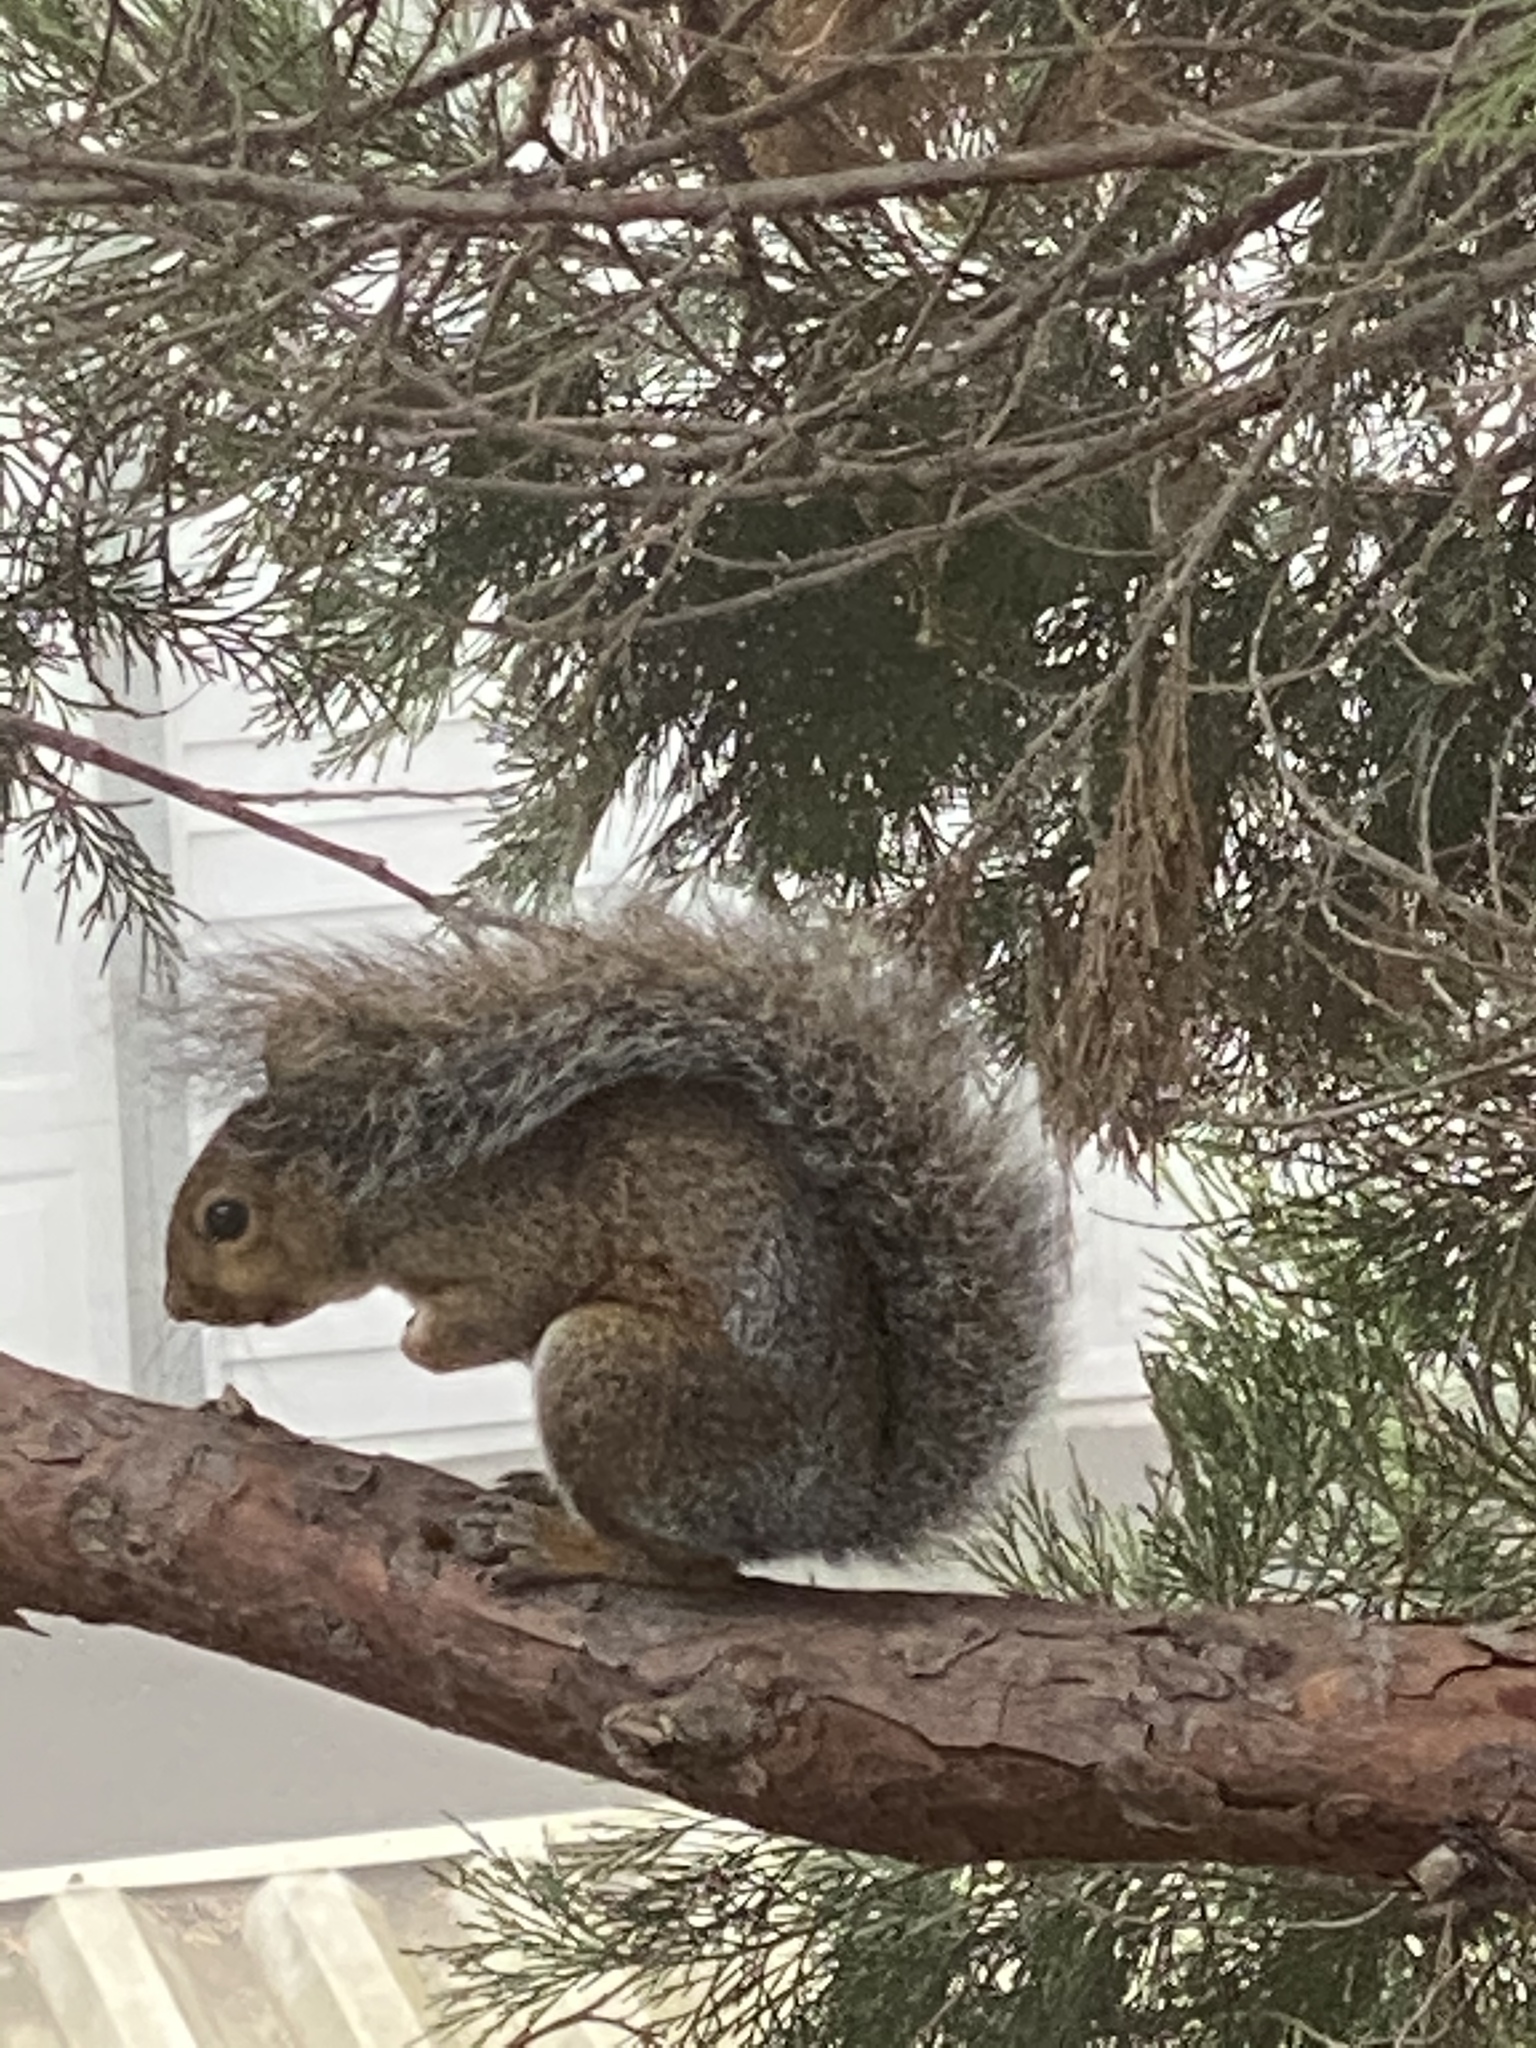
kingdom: Animalia
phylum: Chordata
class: Mammalia
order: Rodentia
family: Sciuridae
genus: Sciurus
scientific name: Sciurus carolinensis
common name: Eastern gray squirrel
